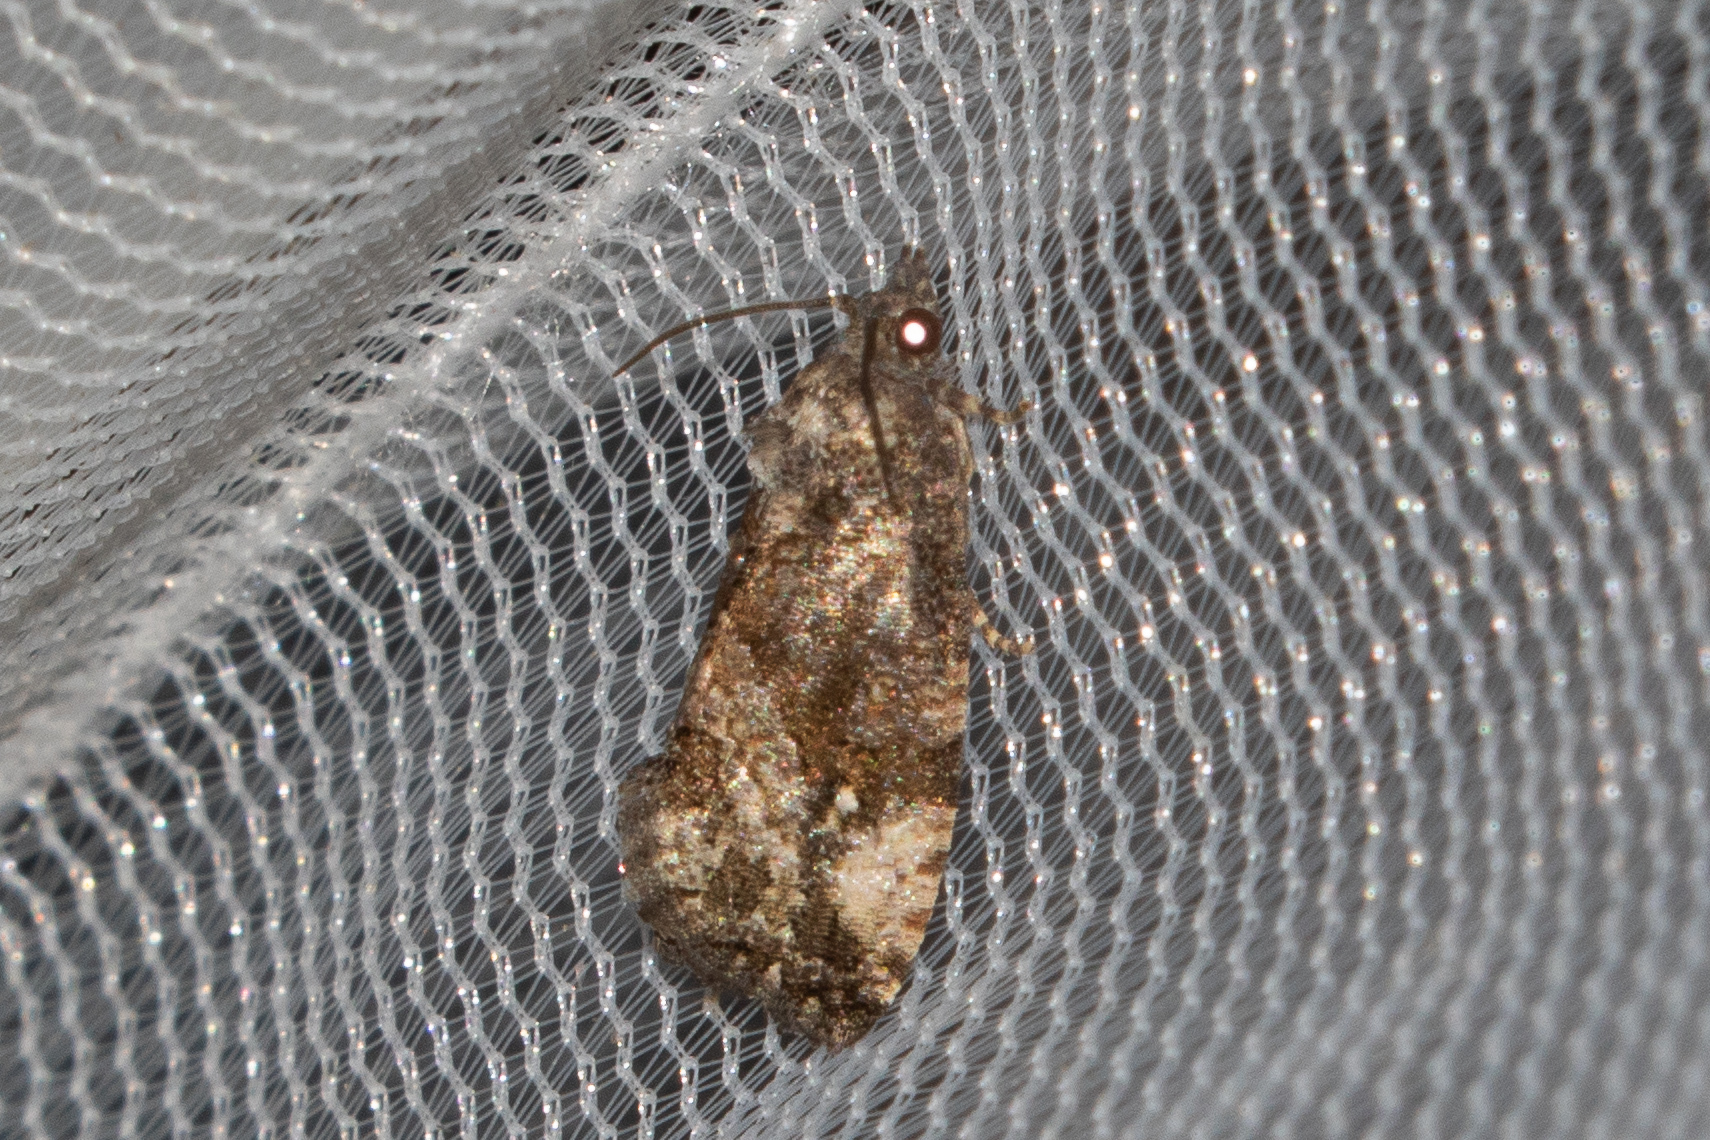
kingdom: Animalia
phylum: Arthropoda
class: Insecta
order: Lepidoptera
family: Tortricidae
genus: Gymnandrosoma
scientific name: Gymnandrosoma punctidiscanum
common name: Dotted ecdytolopha moth
